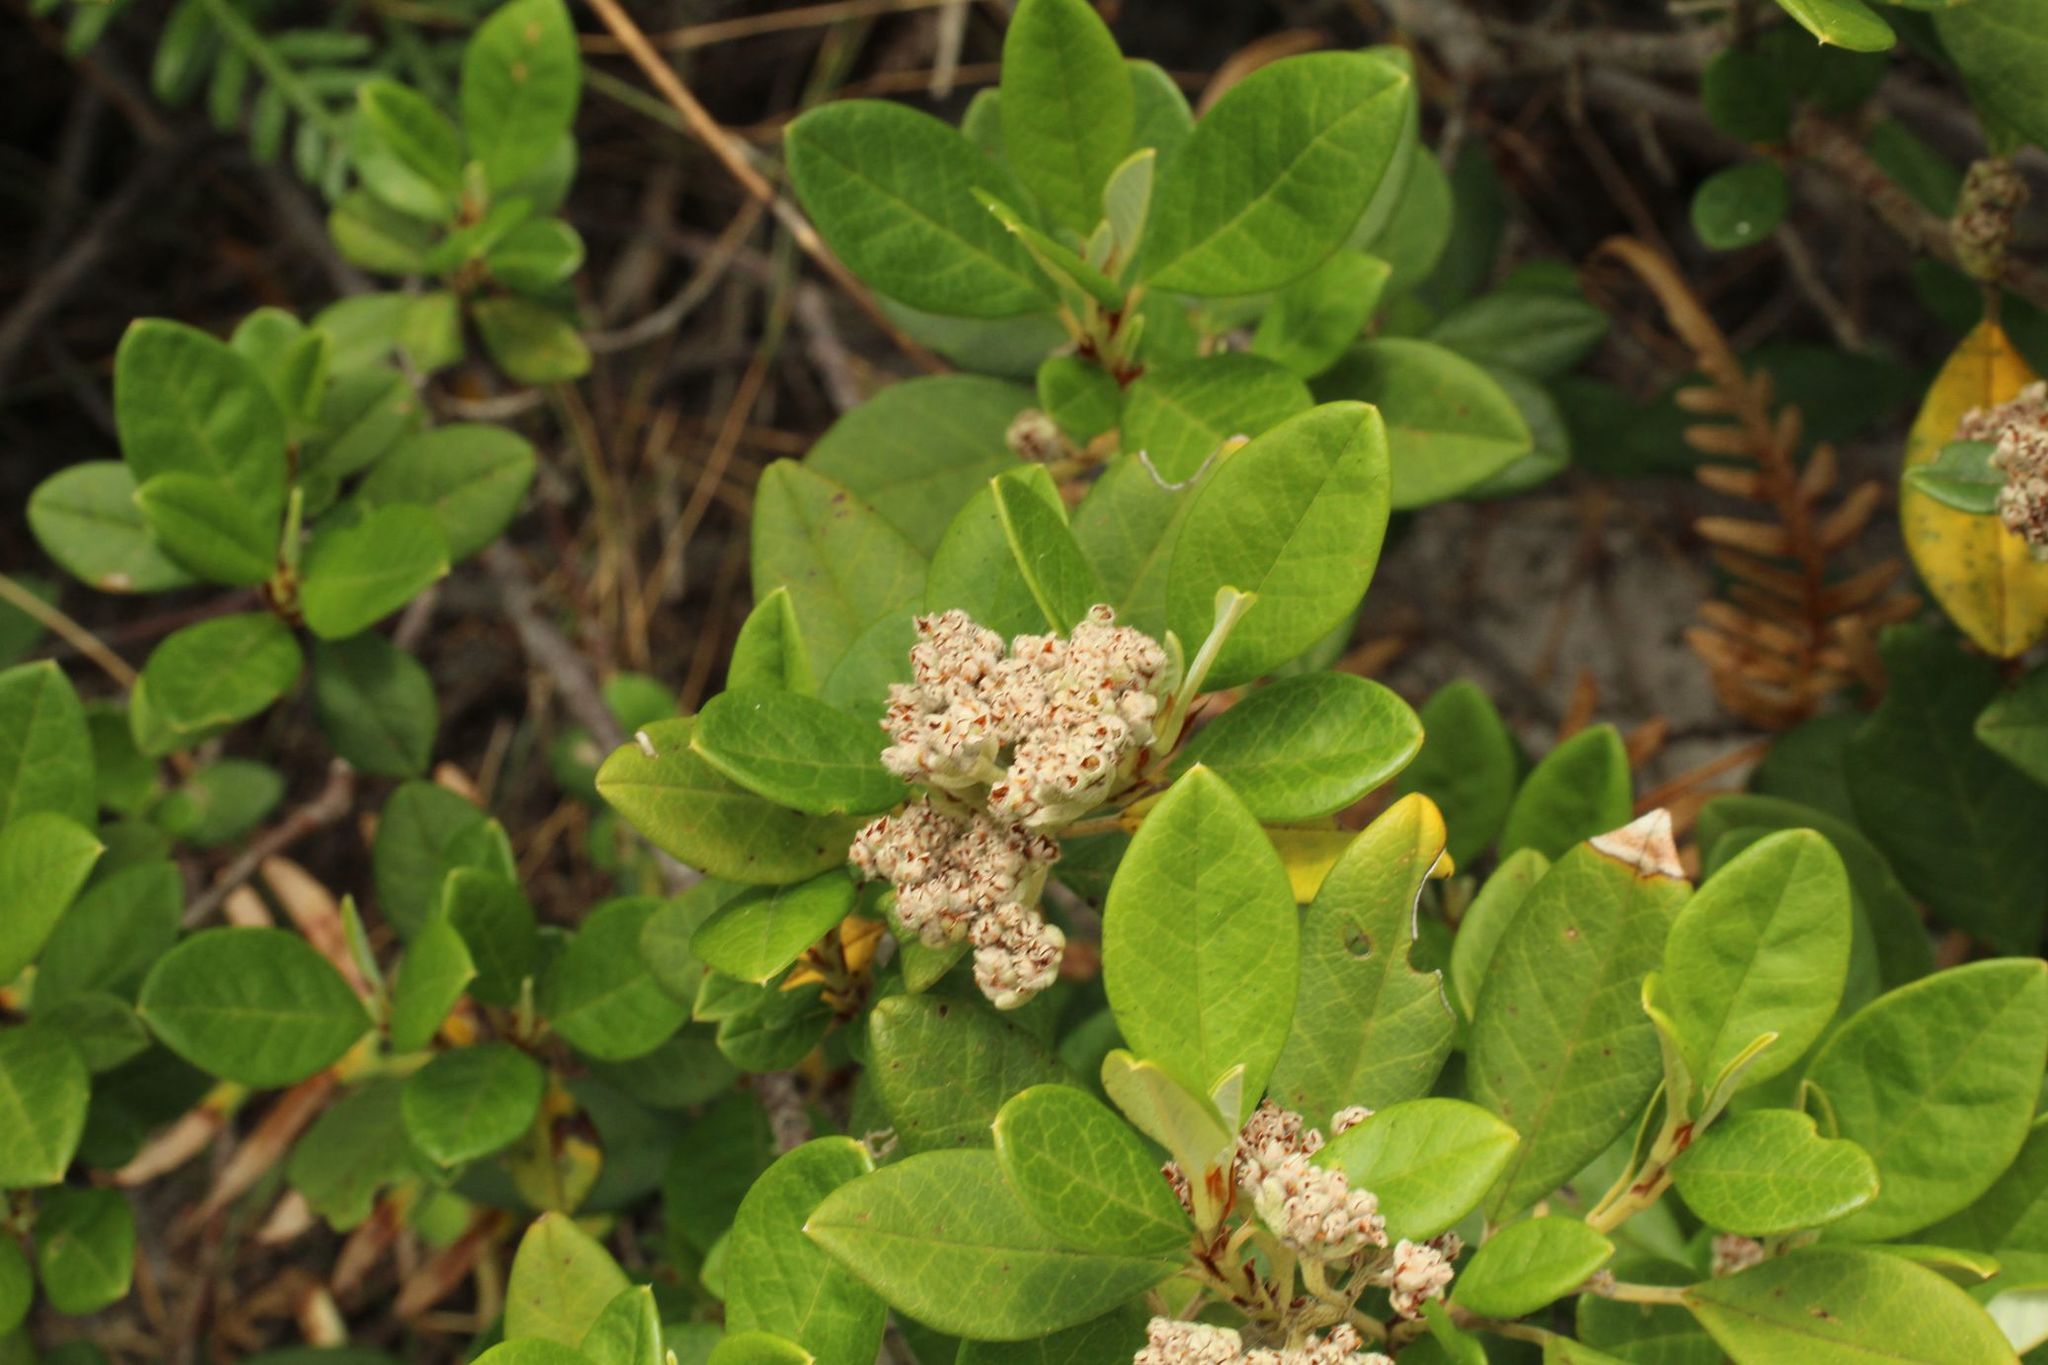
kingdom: Plantae
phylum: Tracheophyta
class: Magnoliopsida
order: Rosales
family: Rhamnaceae
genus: Spyridium
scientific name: Spyridium globulosum
